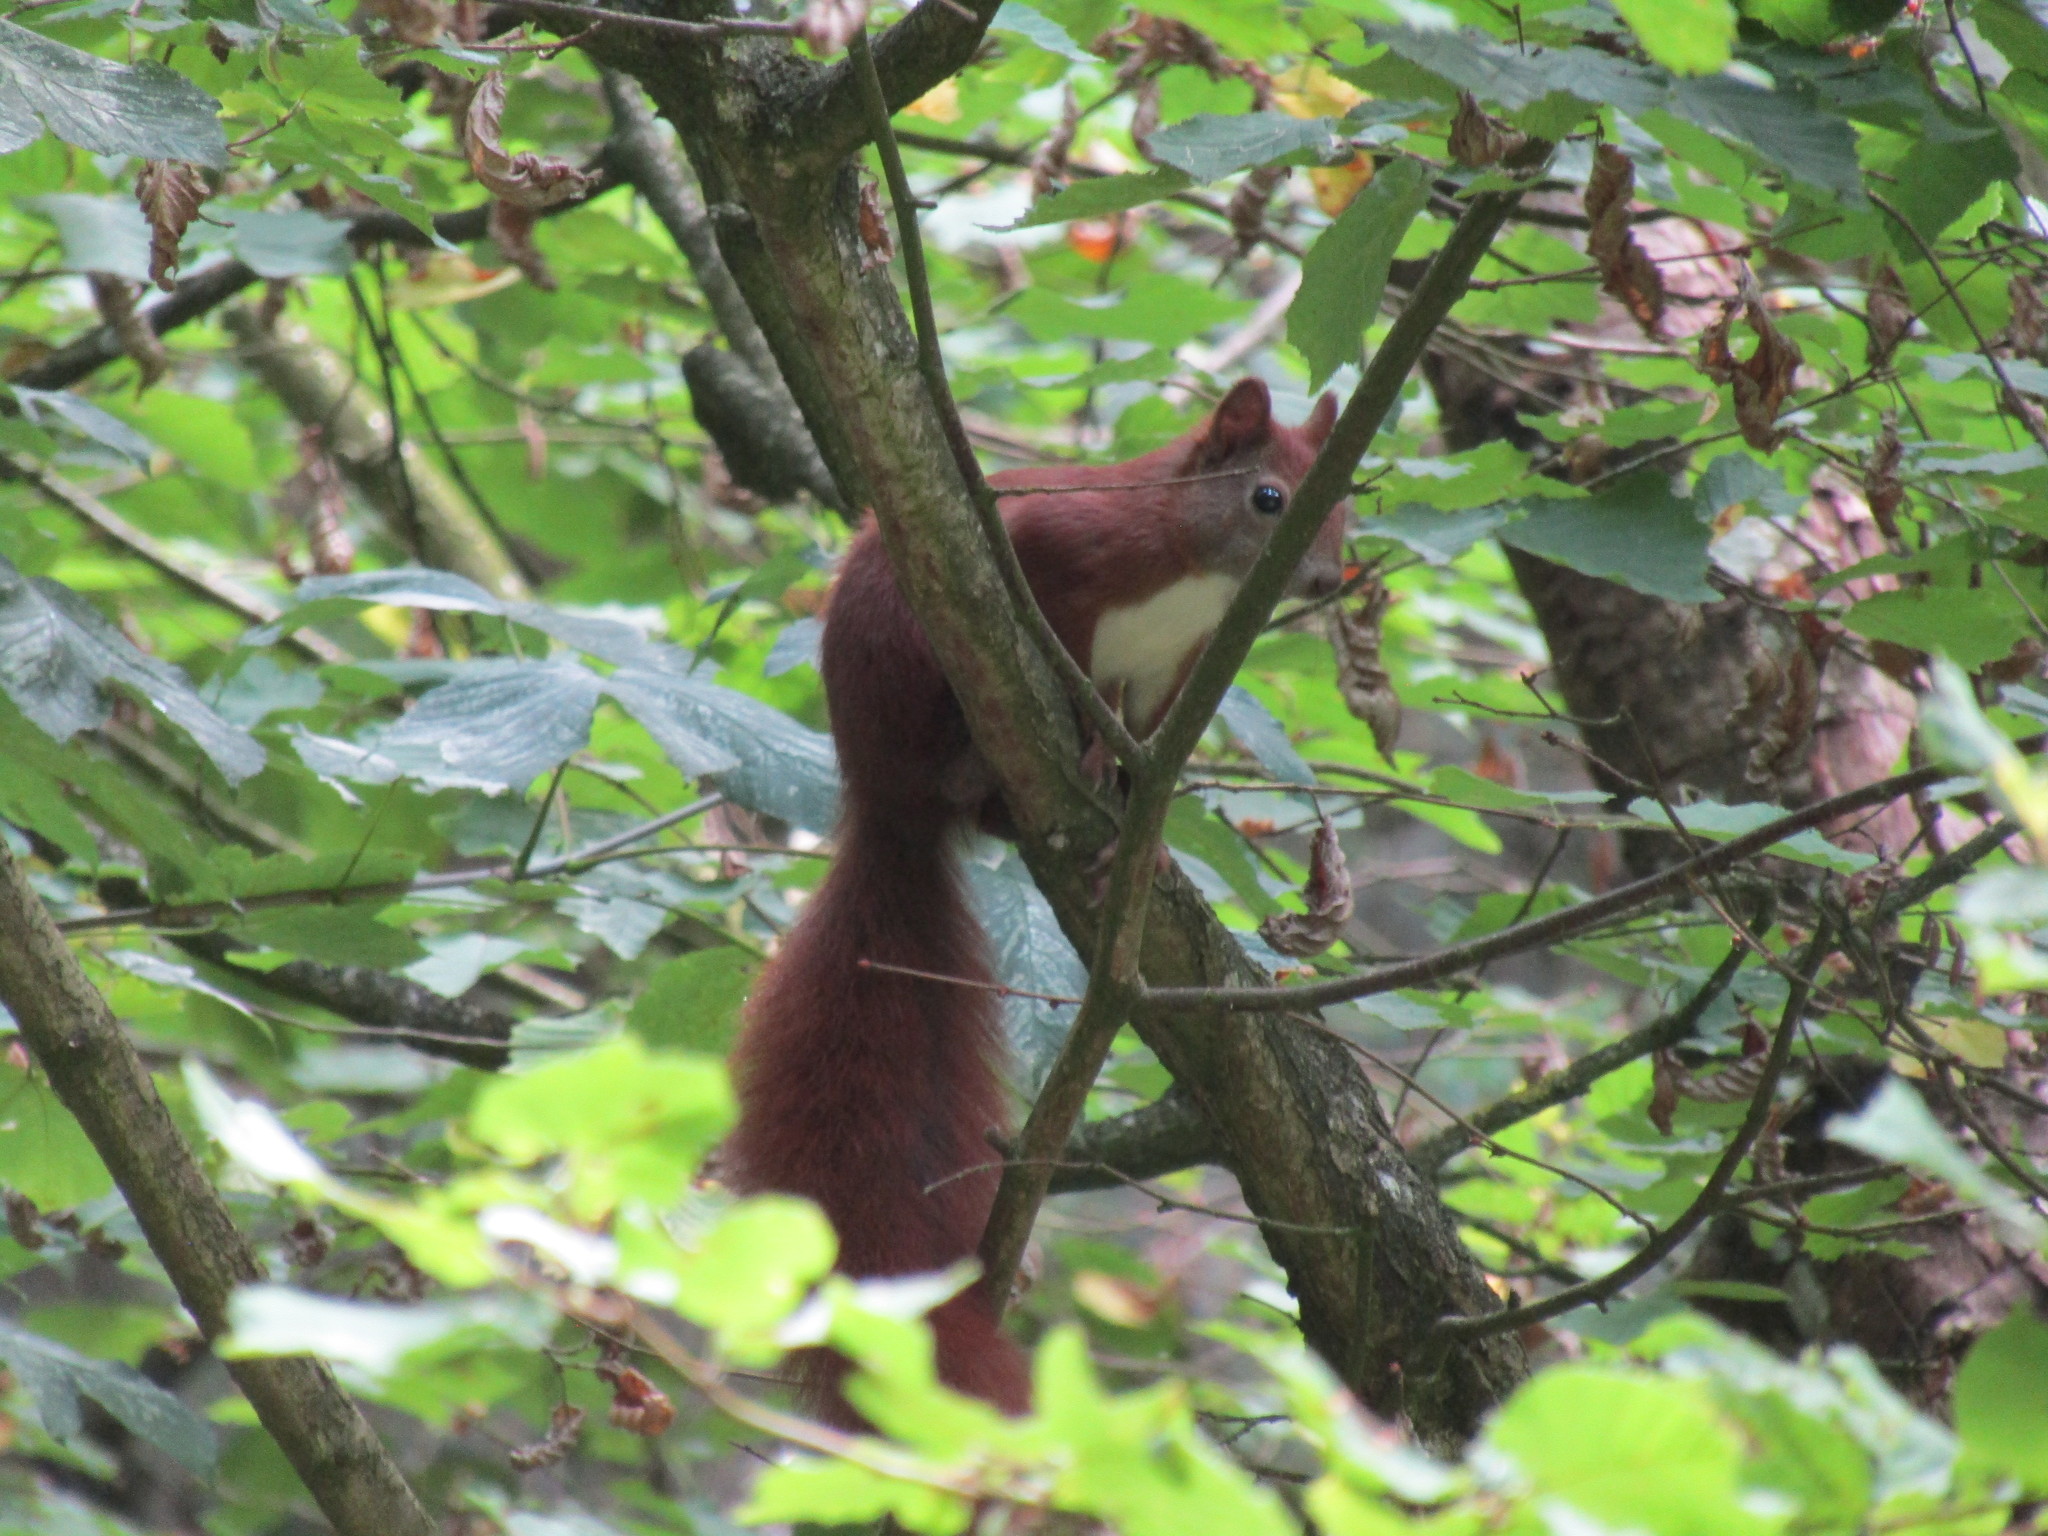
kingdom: Animalia
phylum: Chordata
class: Mammalia
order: Rodentia
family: Sciuridae
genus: Sciurus
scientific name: Sciurus vulgaris
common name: Eurasian red squirrel
